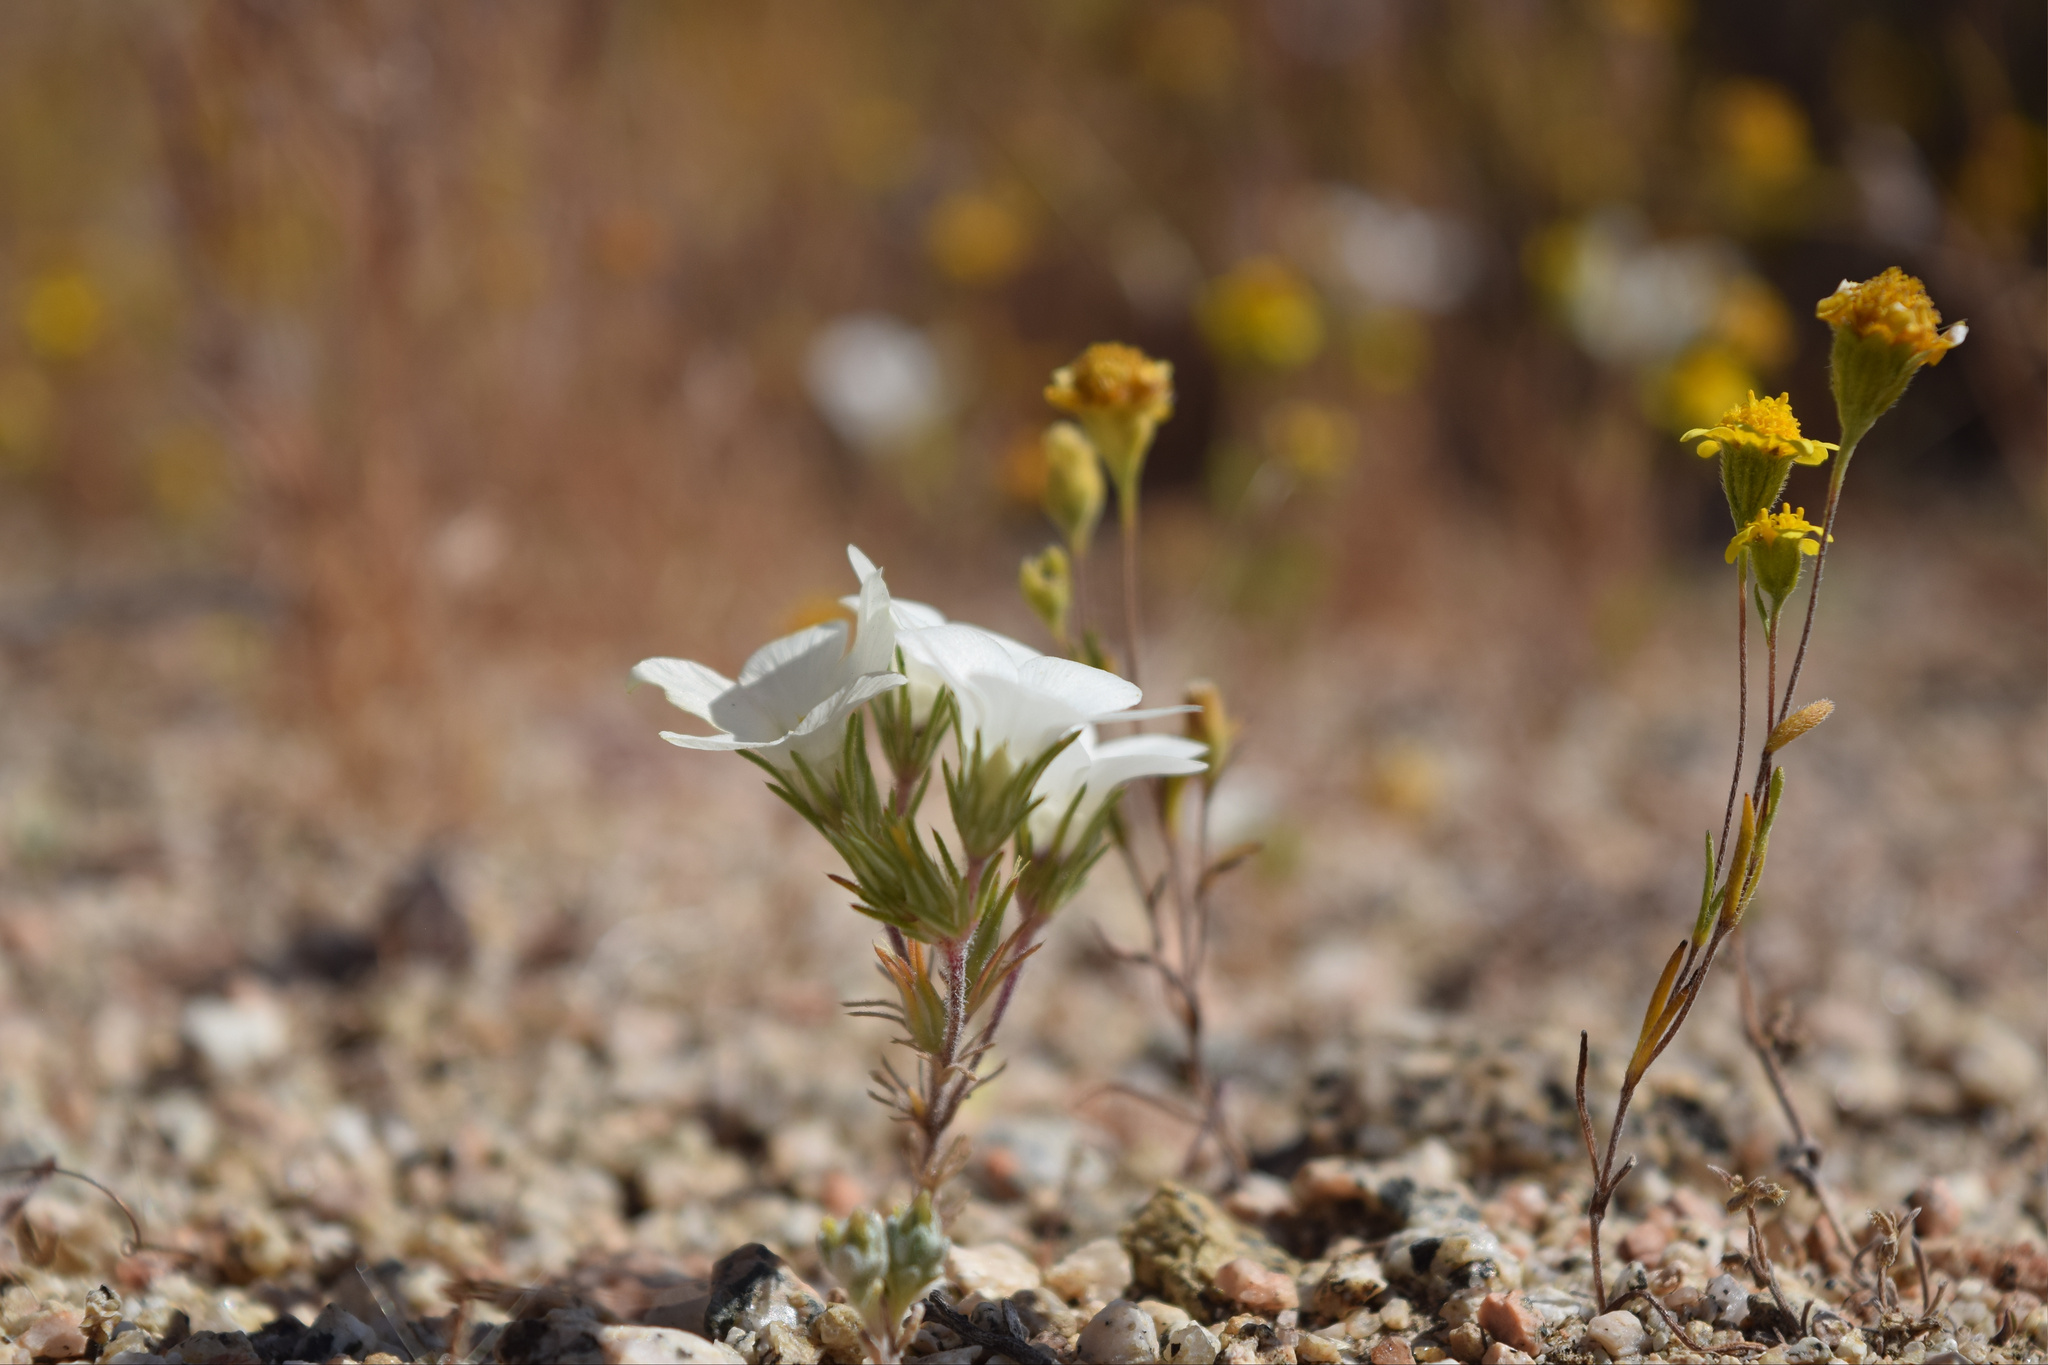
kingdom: Plantae
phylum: Tracheophyta
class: Magnoliopsida
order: Ericales
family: Polemoniaceae
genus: Linanthus
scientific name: Linanthus parryae
